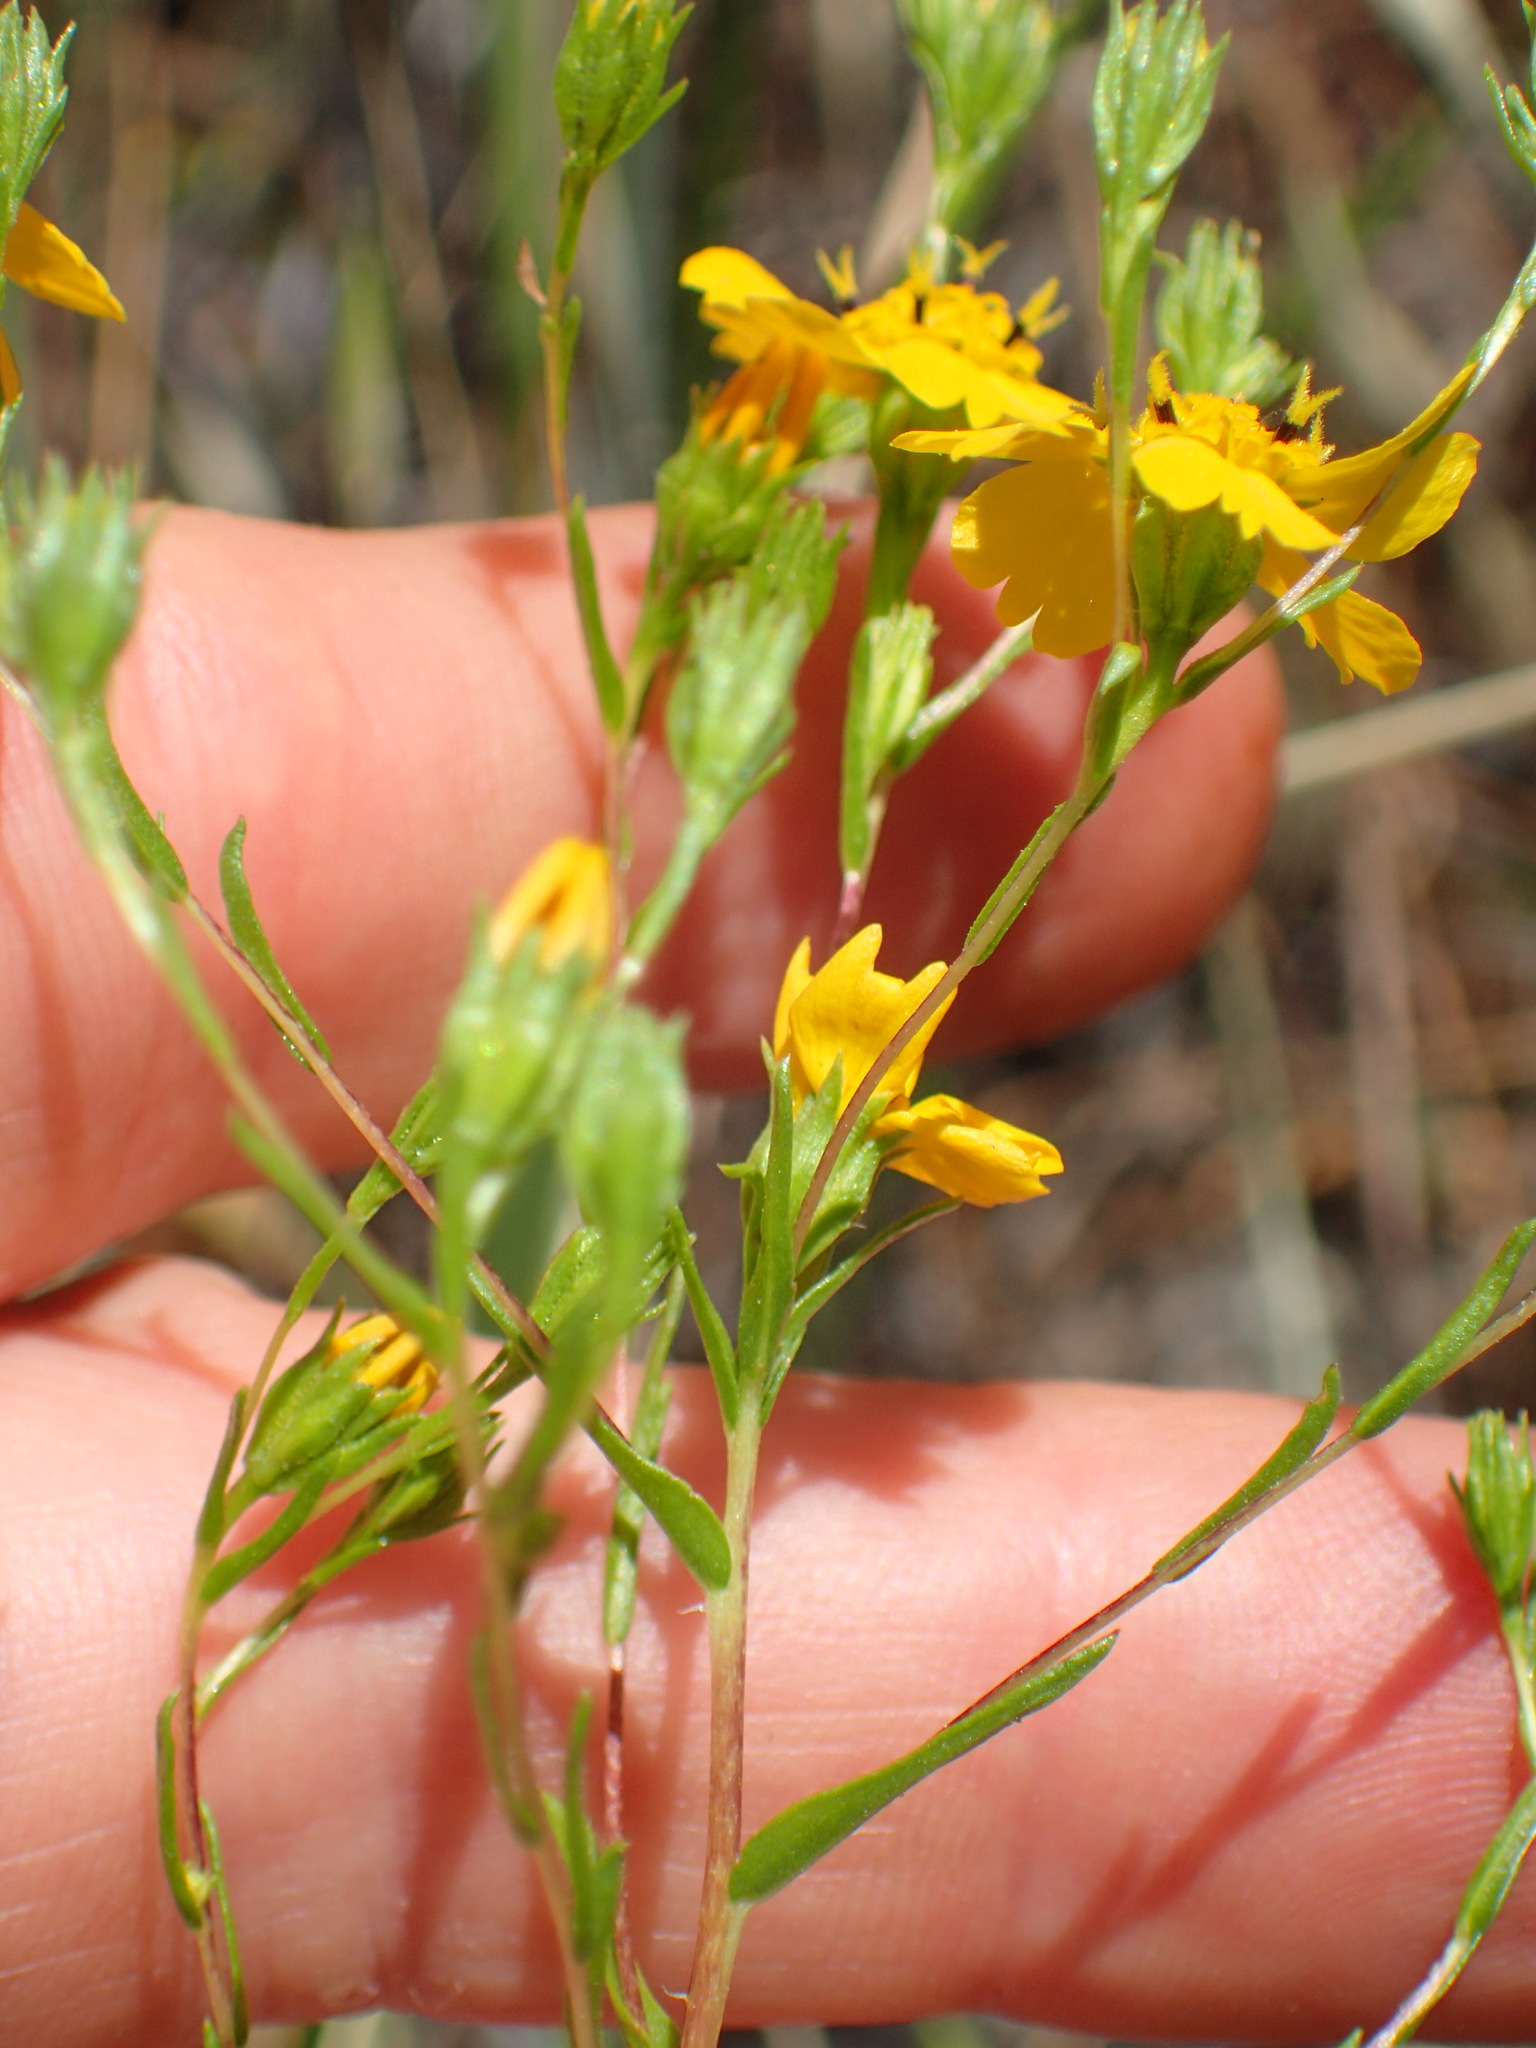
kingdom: Plantae
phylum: Tracheophyta
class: Magnoliopsida
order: Asterales
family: Asteraceae
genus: Deinandra
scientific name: Deinandra fasciculata
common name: Clustered tarweed
